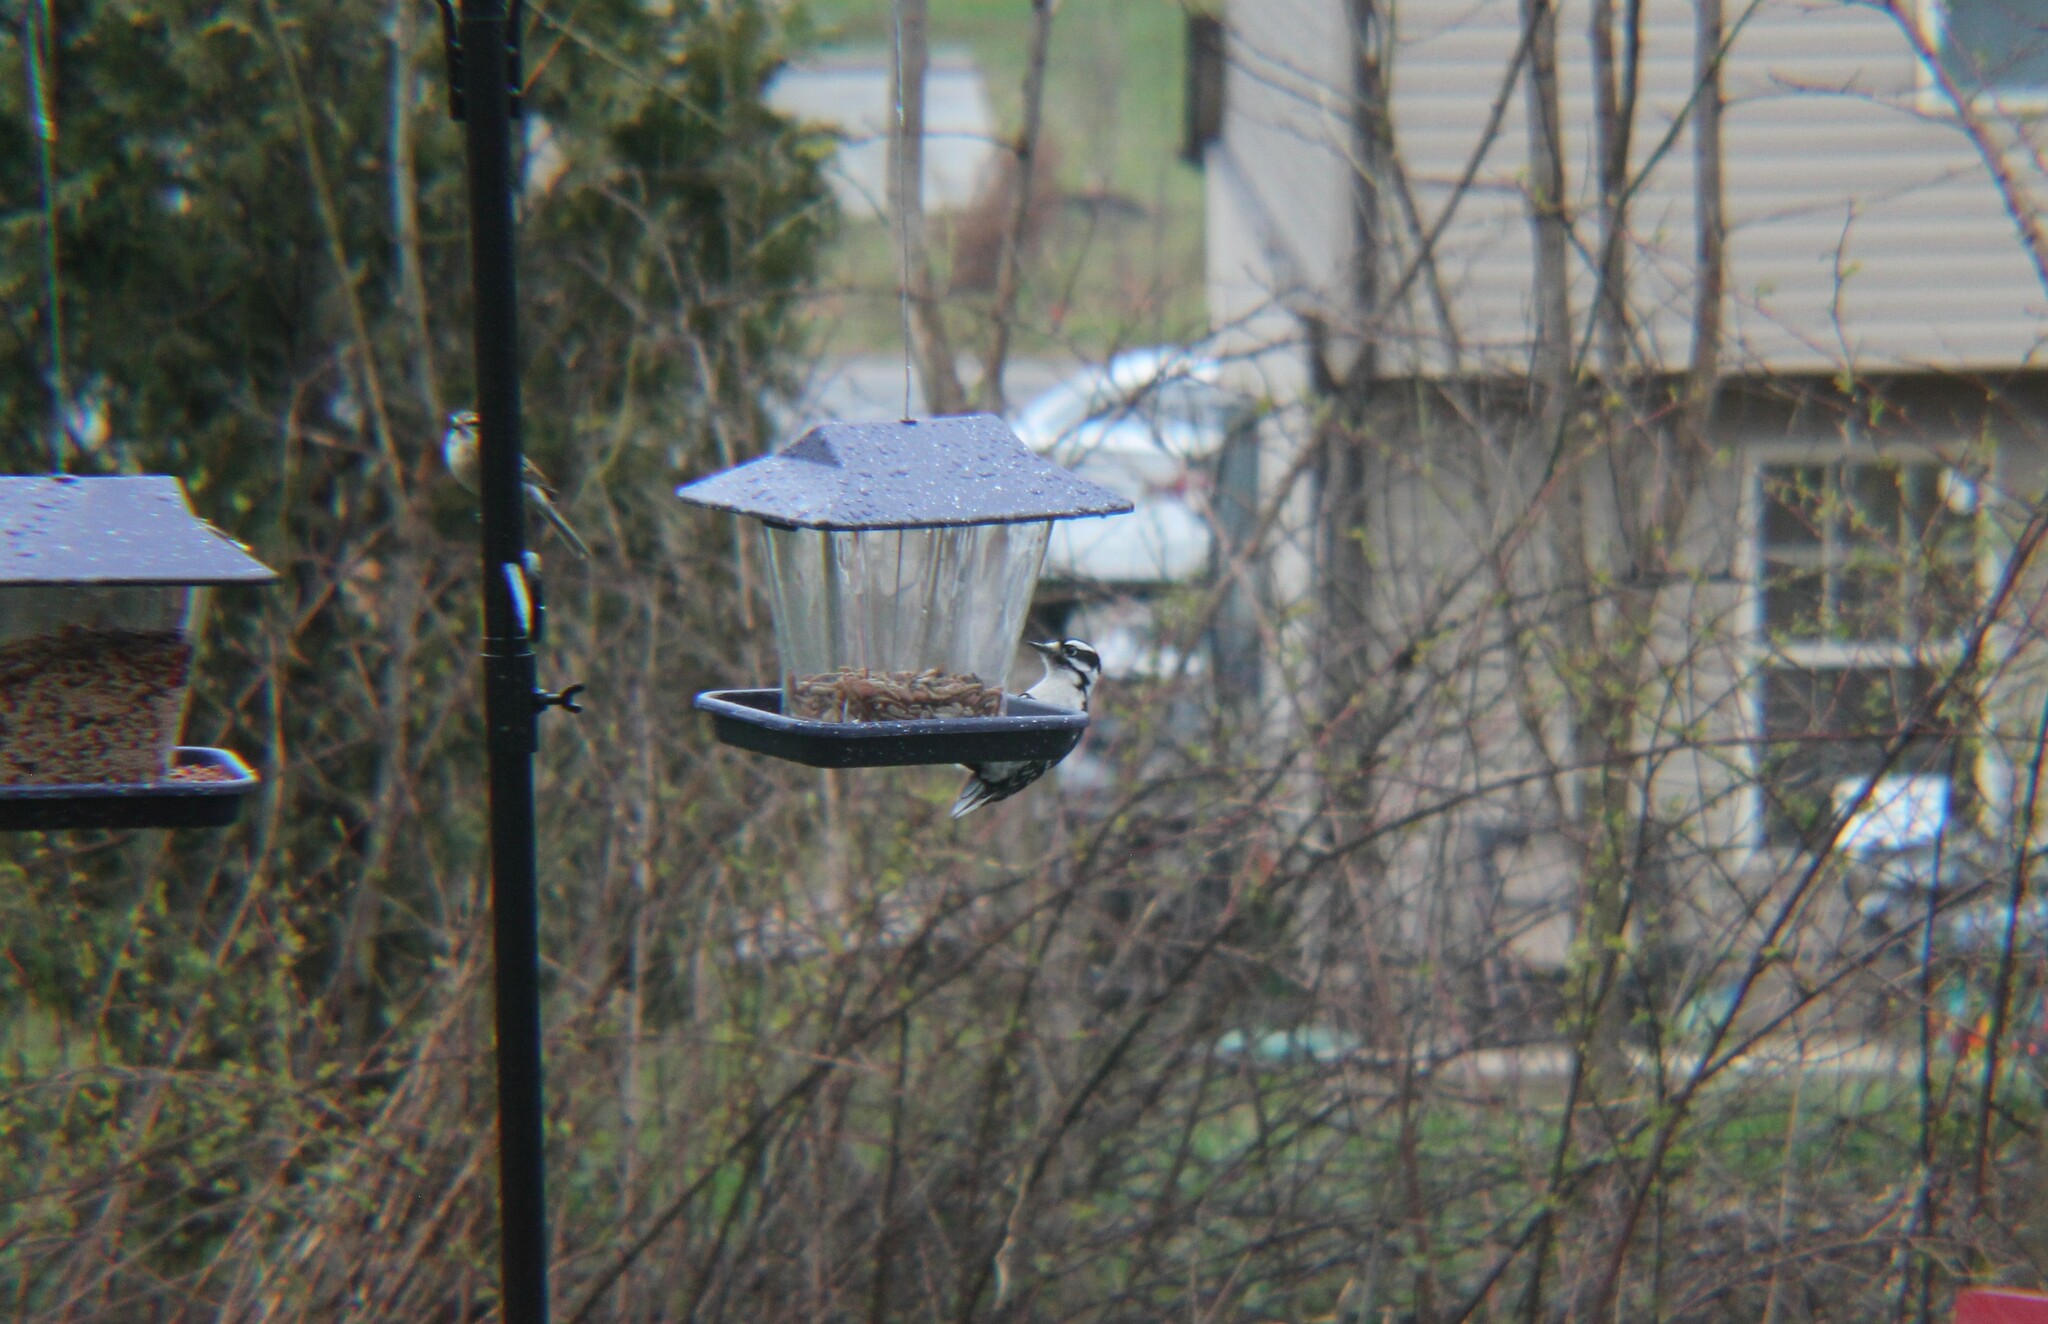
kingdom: Animalia
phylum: Chordata
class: Aves
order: Piciformes
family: Picidae
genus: Dryobates
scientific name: Dryobates pubescens
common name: Downy woodpecker
